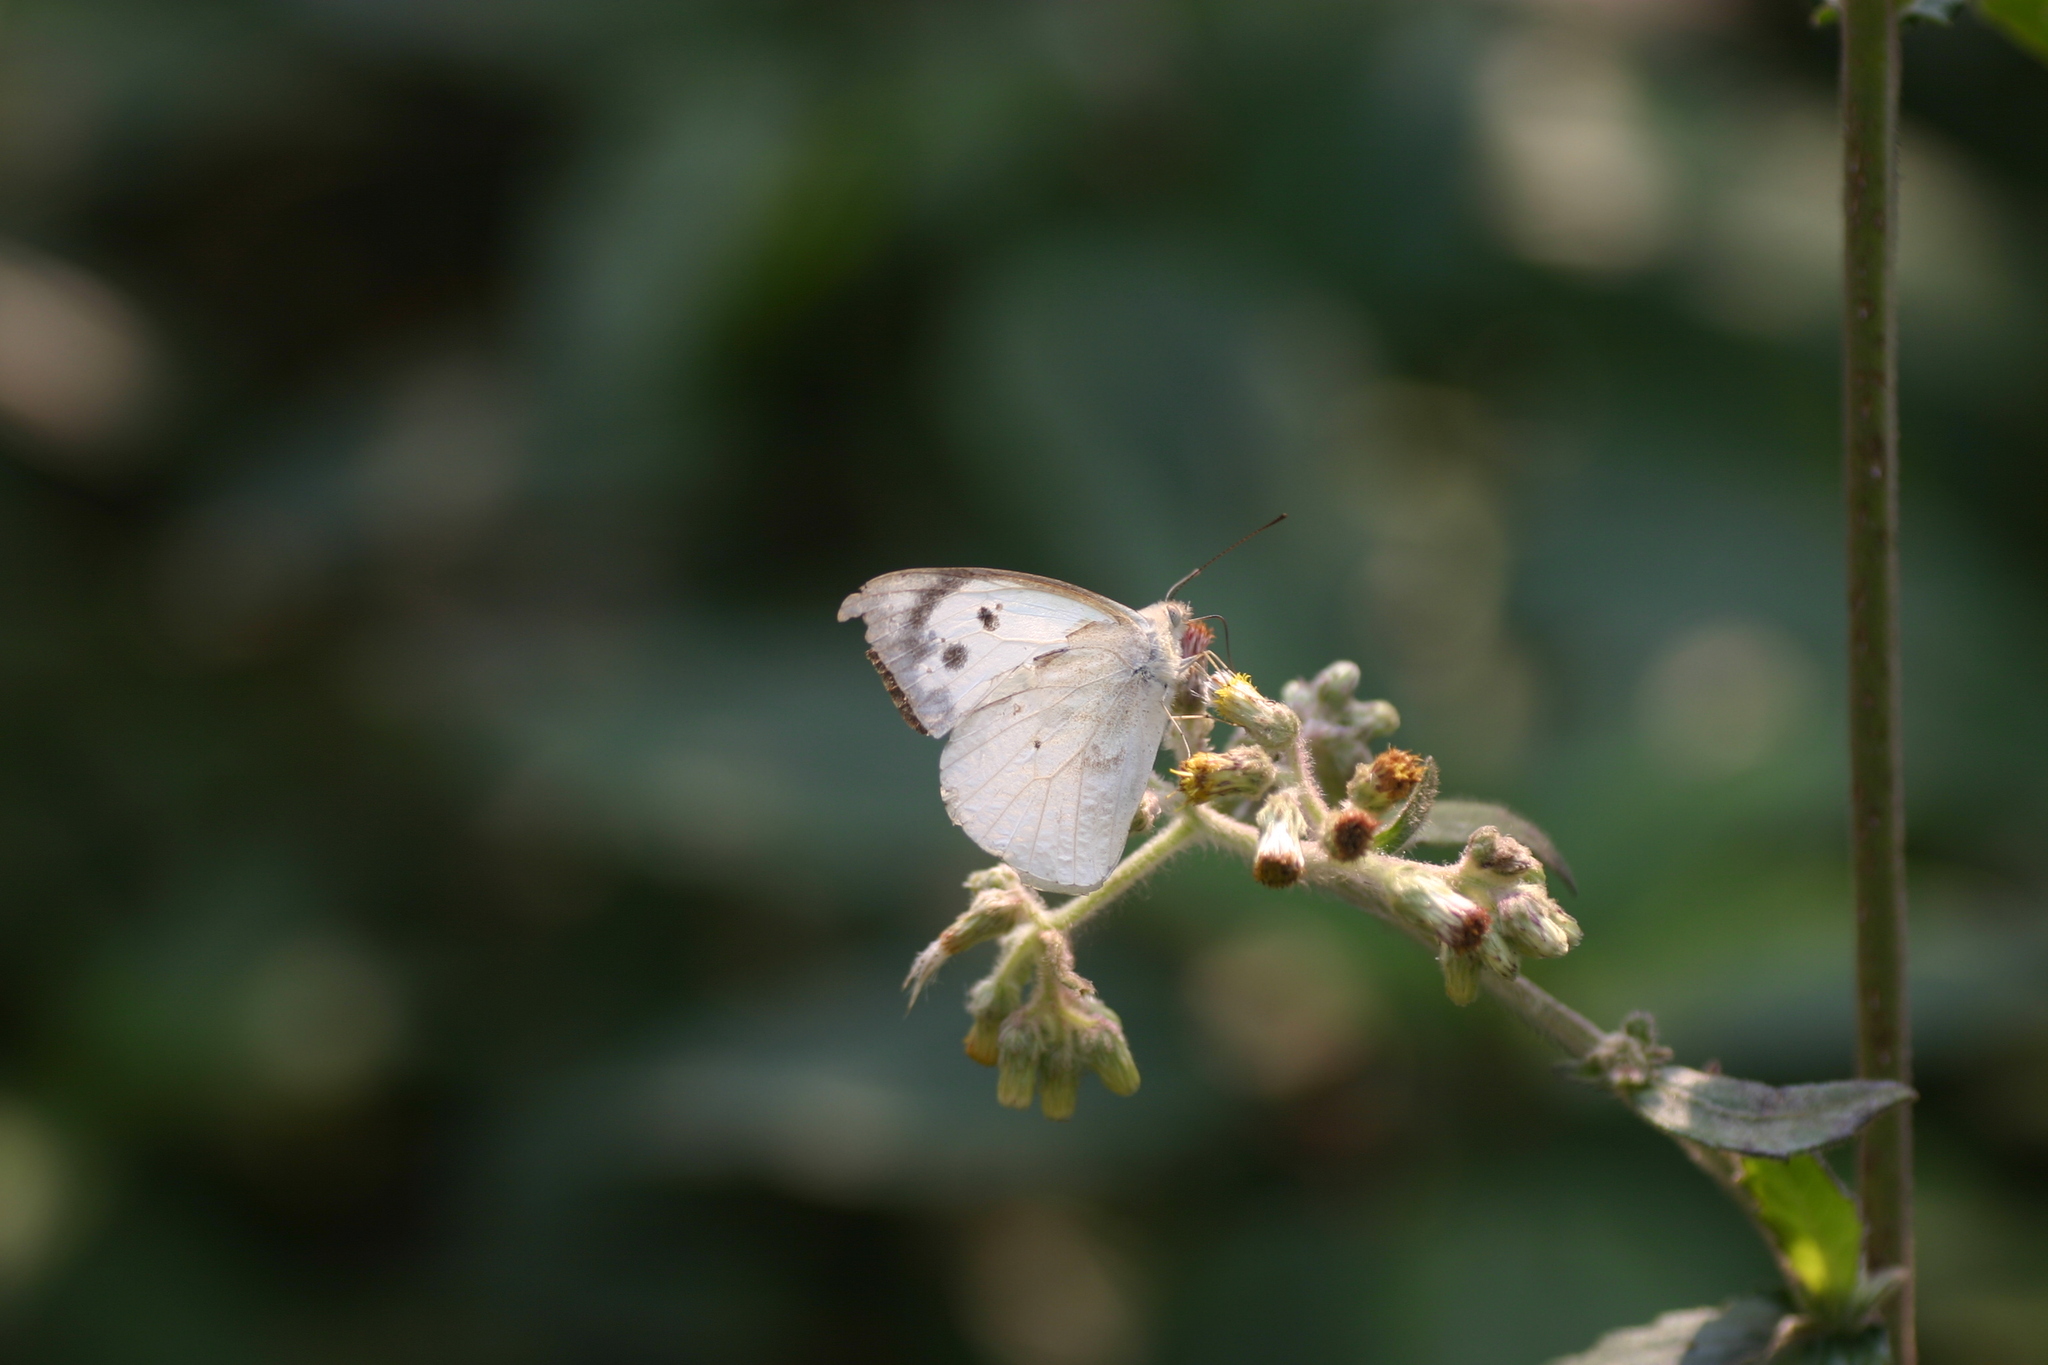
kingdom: Animalia
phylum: Arthropoda
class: Insecta
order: Lepidoptera
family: Pieridae
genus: Appias
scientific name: Appias lalage
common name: Spot puffin
